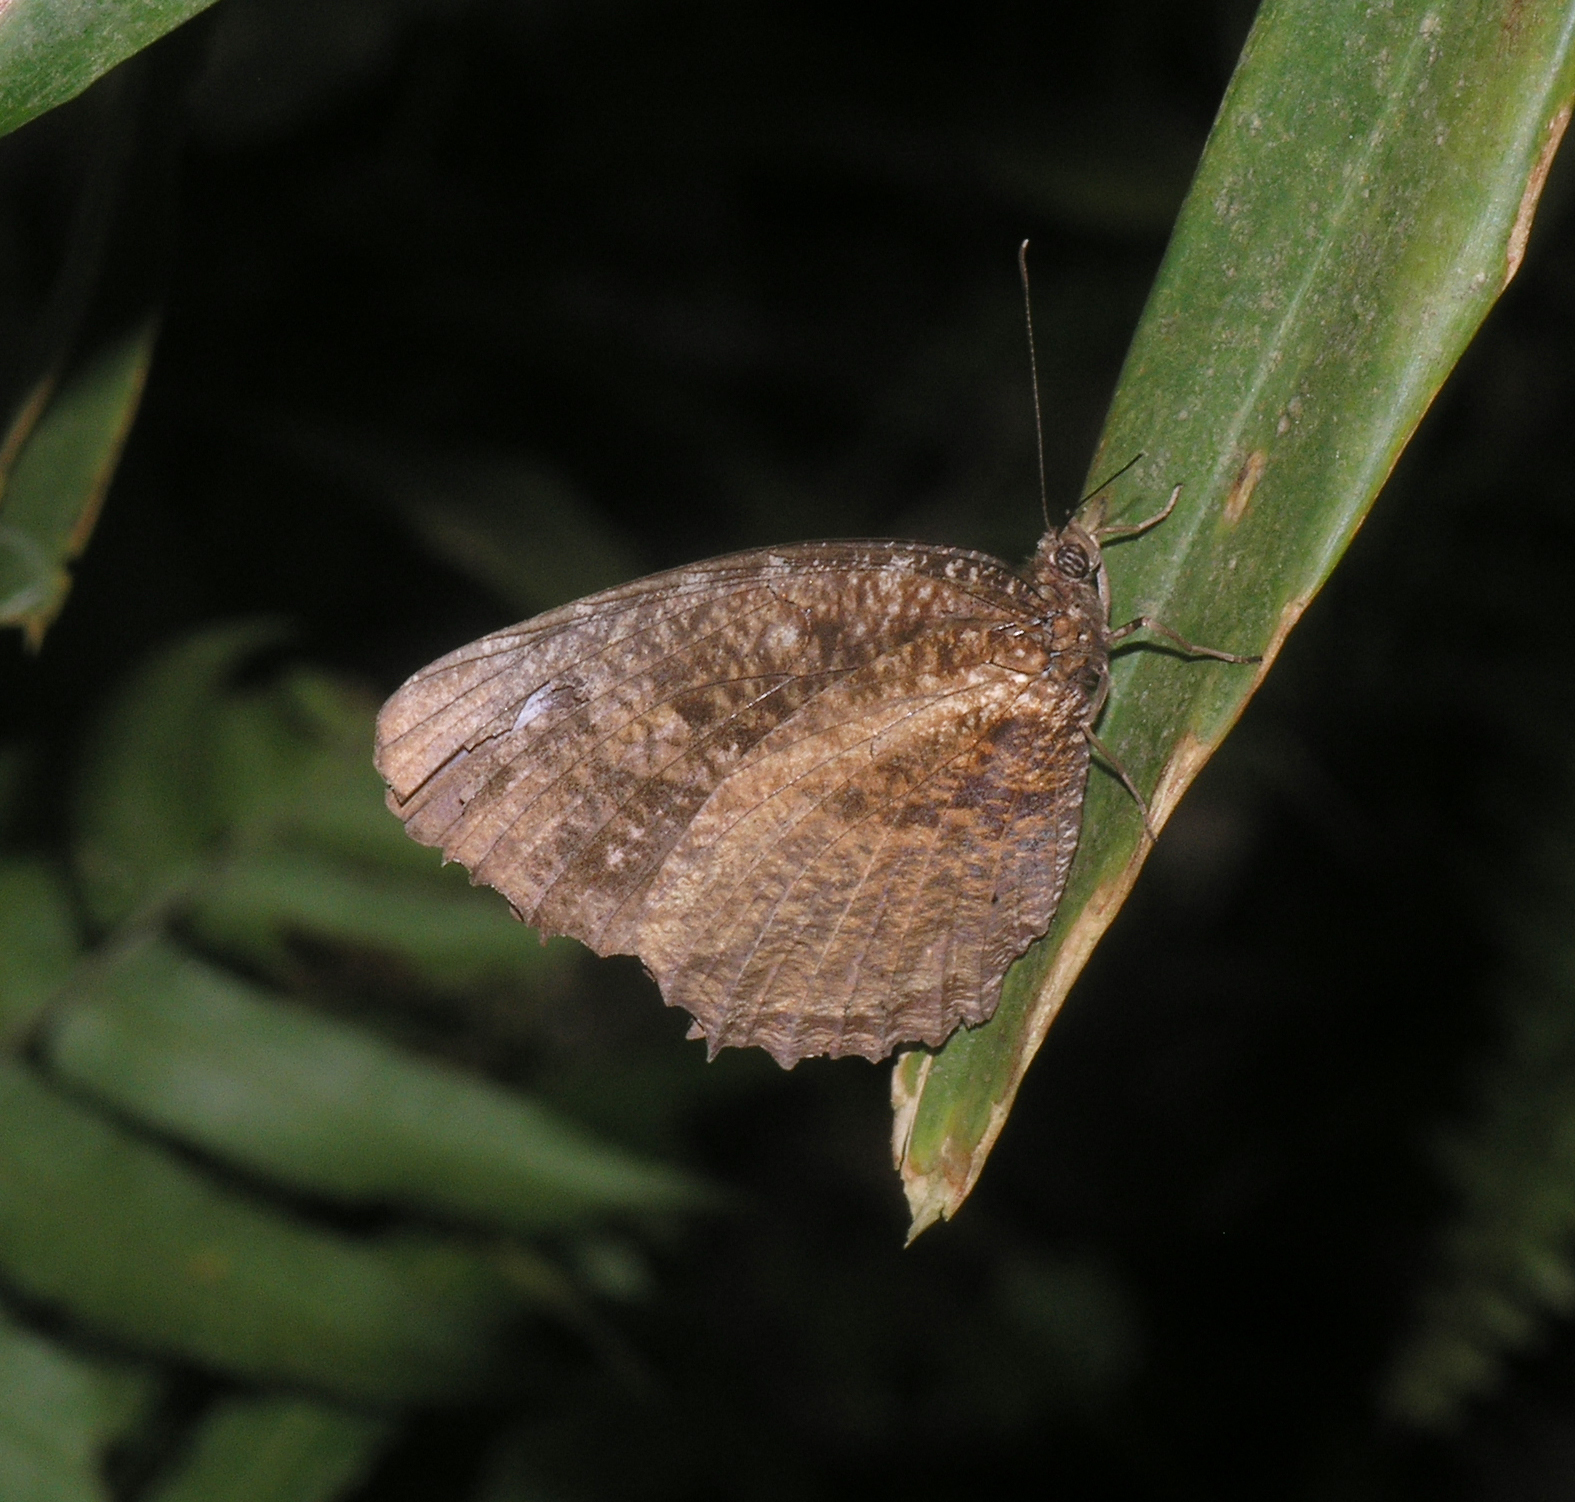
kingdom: Animalia
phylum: Arthropoda
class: Insecta
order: Lepidoptera
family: Nymphalidae
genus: Elymnias
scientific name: Elymnias casiphone
